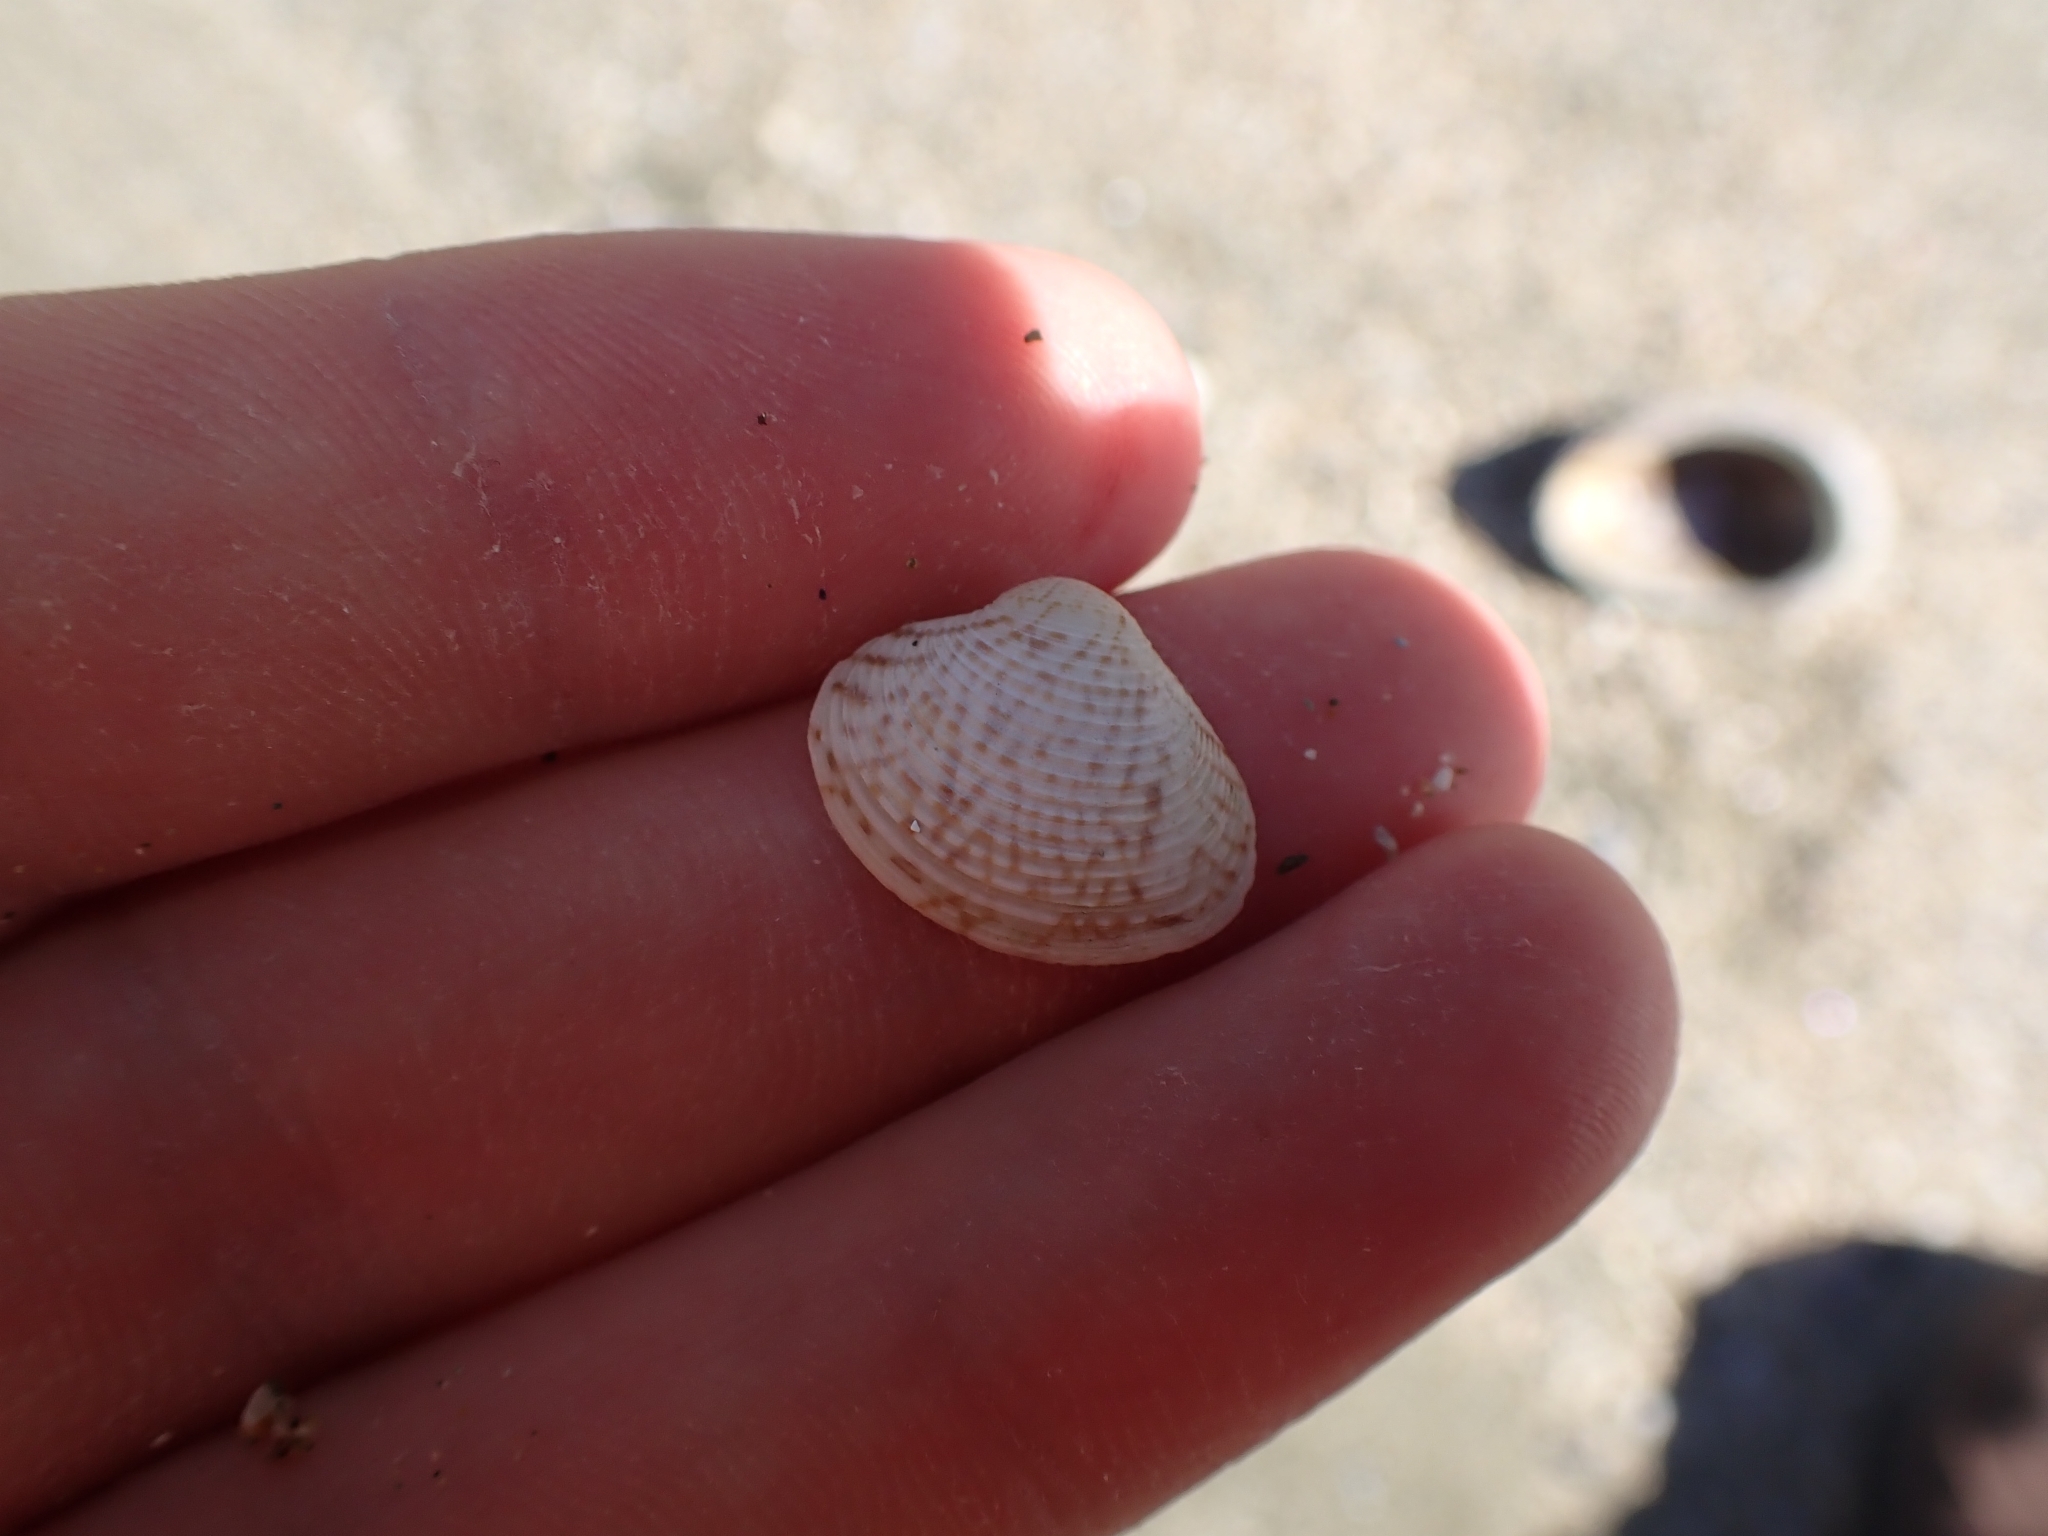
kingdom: Animalia
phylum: Mollusca
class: Bivalvia
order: Venerida
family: Veneridae
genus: Tawera
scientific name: Tawera spissa
